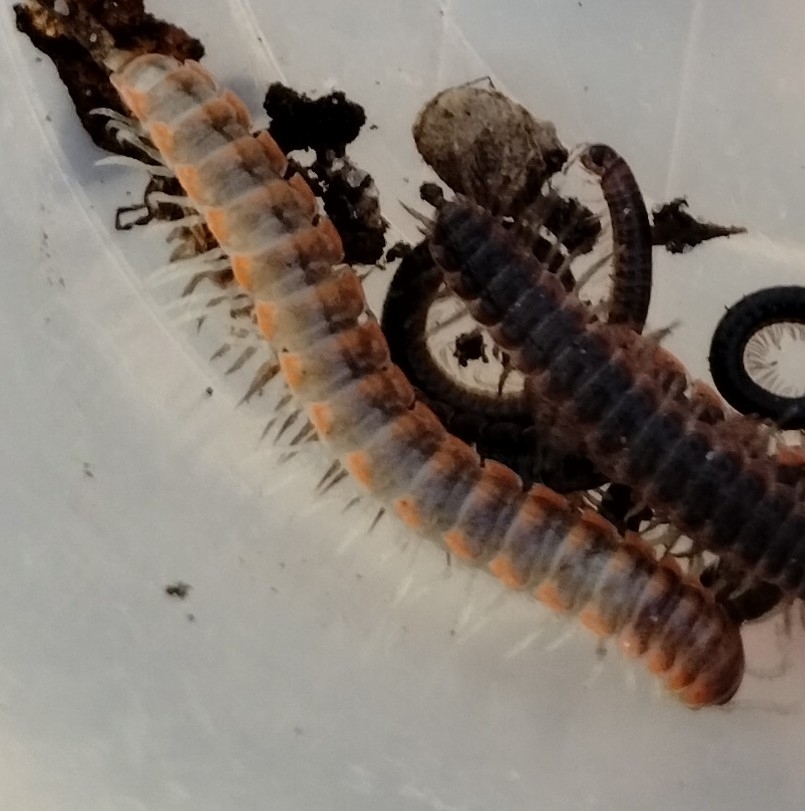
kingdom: Animalia
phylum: Arthropoda
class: Diplopoda
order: Polydesmida
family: Xystodesmidae
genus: Euryurus
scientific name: Euryurus maculatus
